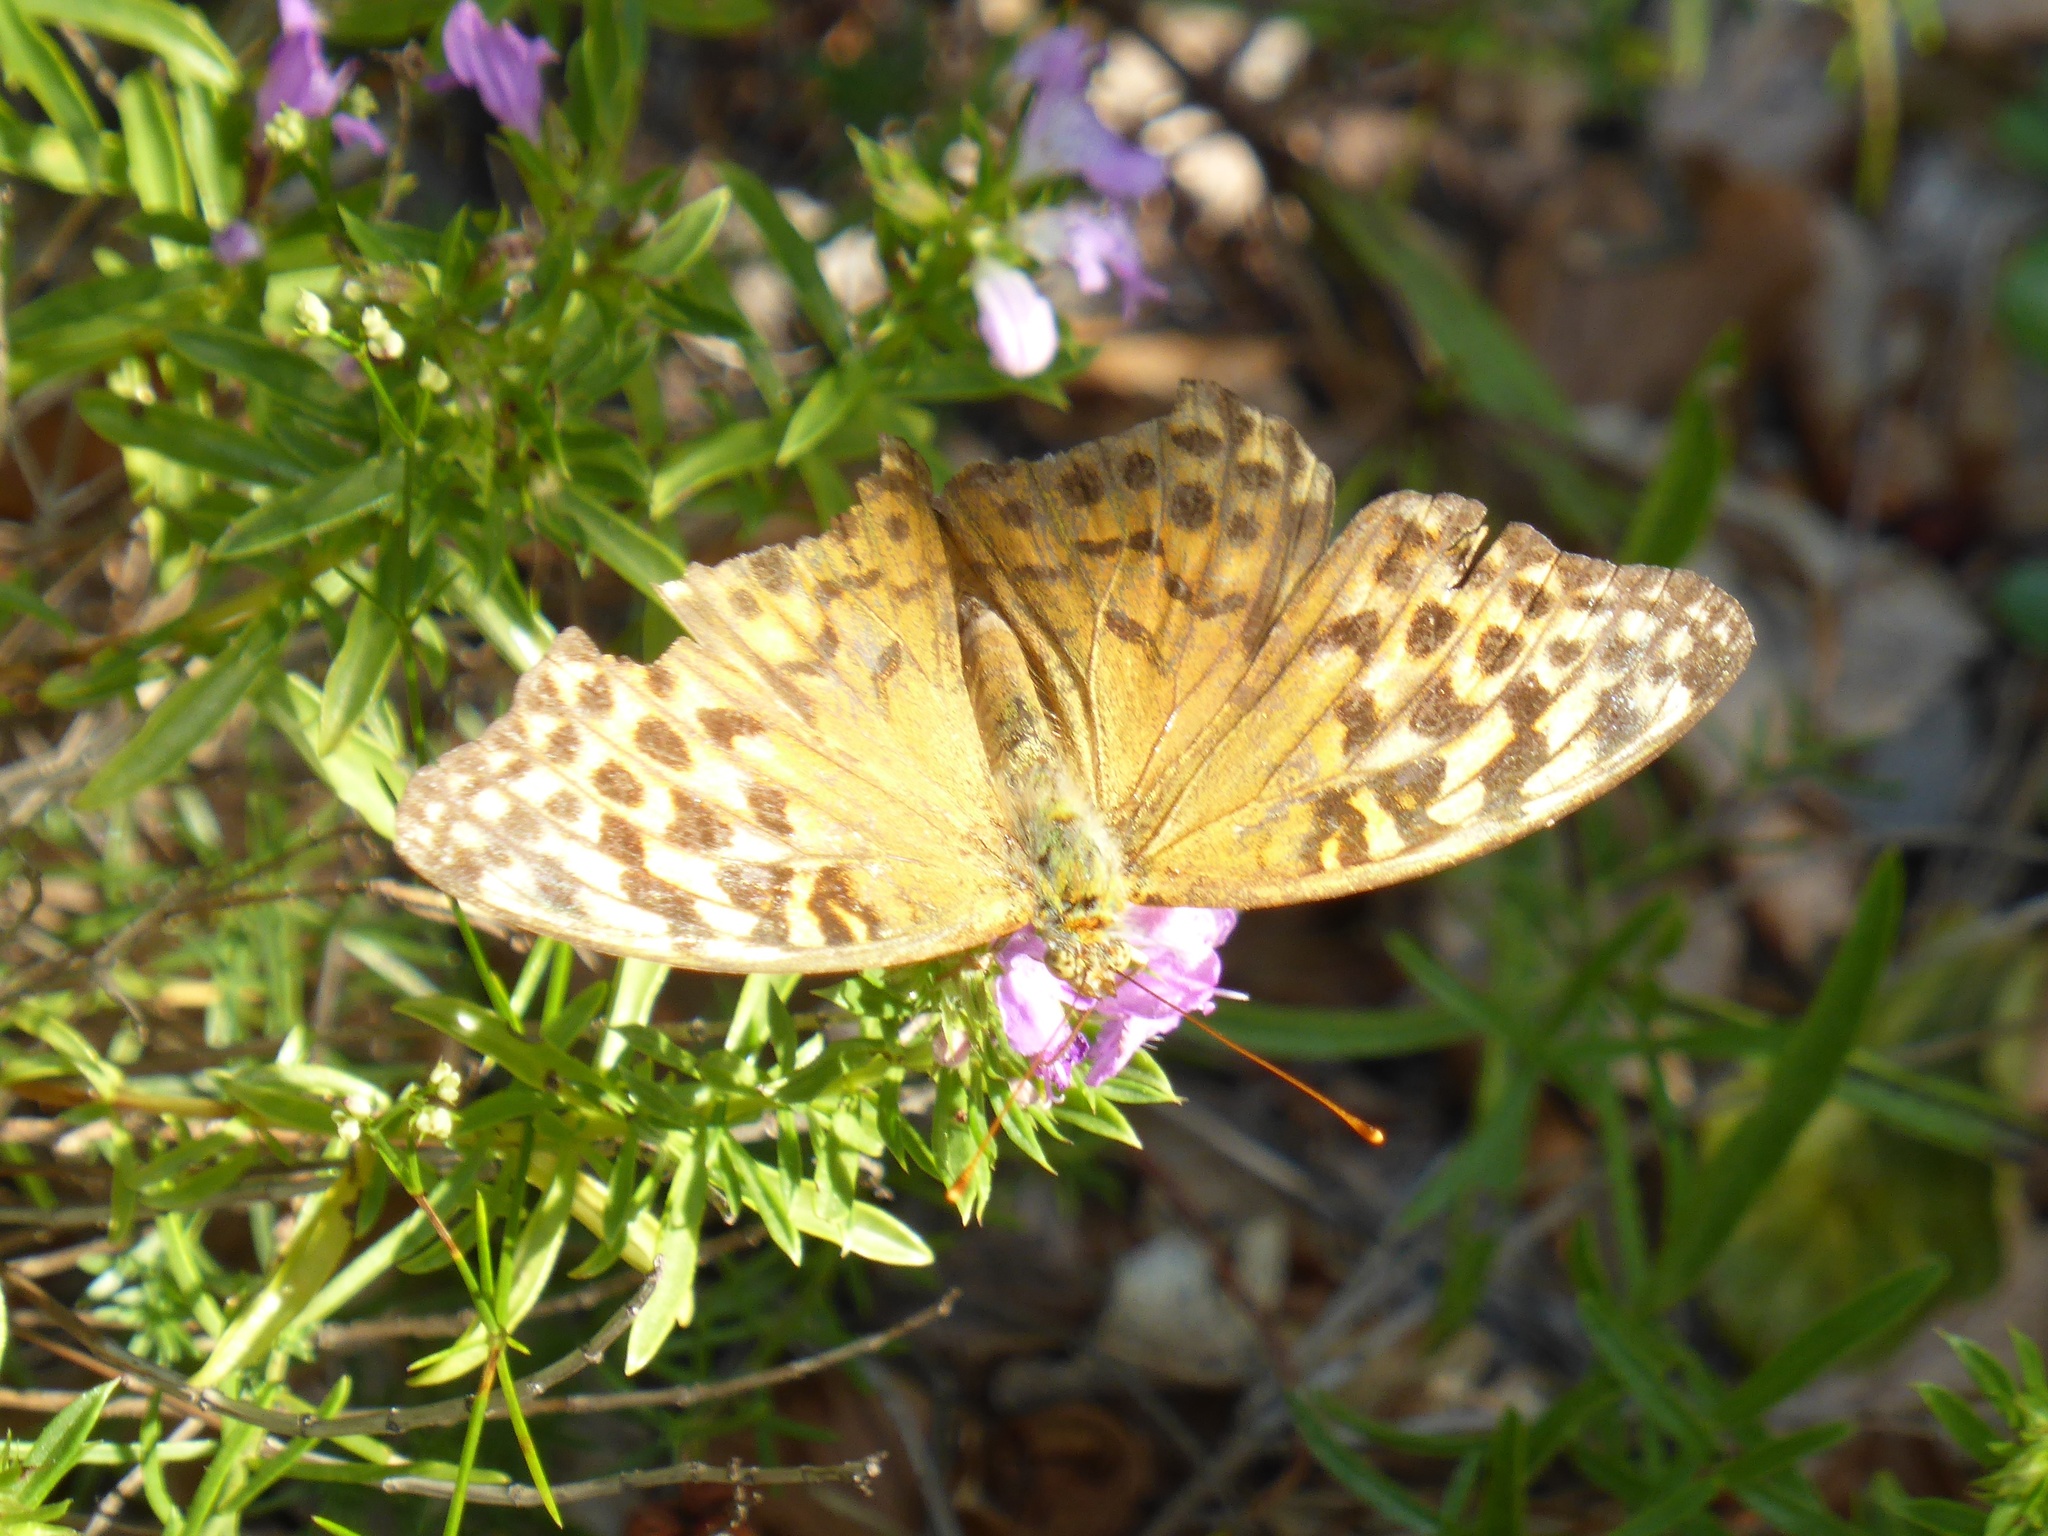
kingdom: Animalia
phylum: Arthropoda
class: Insecta
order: Lepidoptera
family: Nymphalidae
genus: Argynnis
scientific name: Argynnis paphia
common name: Silver-washed fritillary
